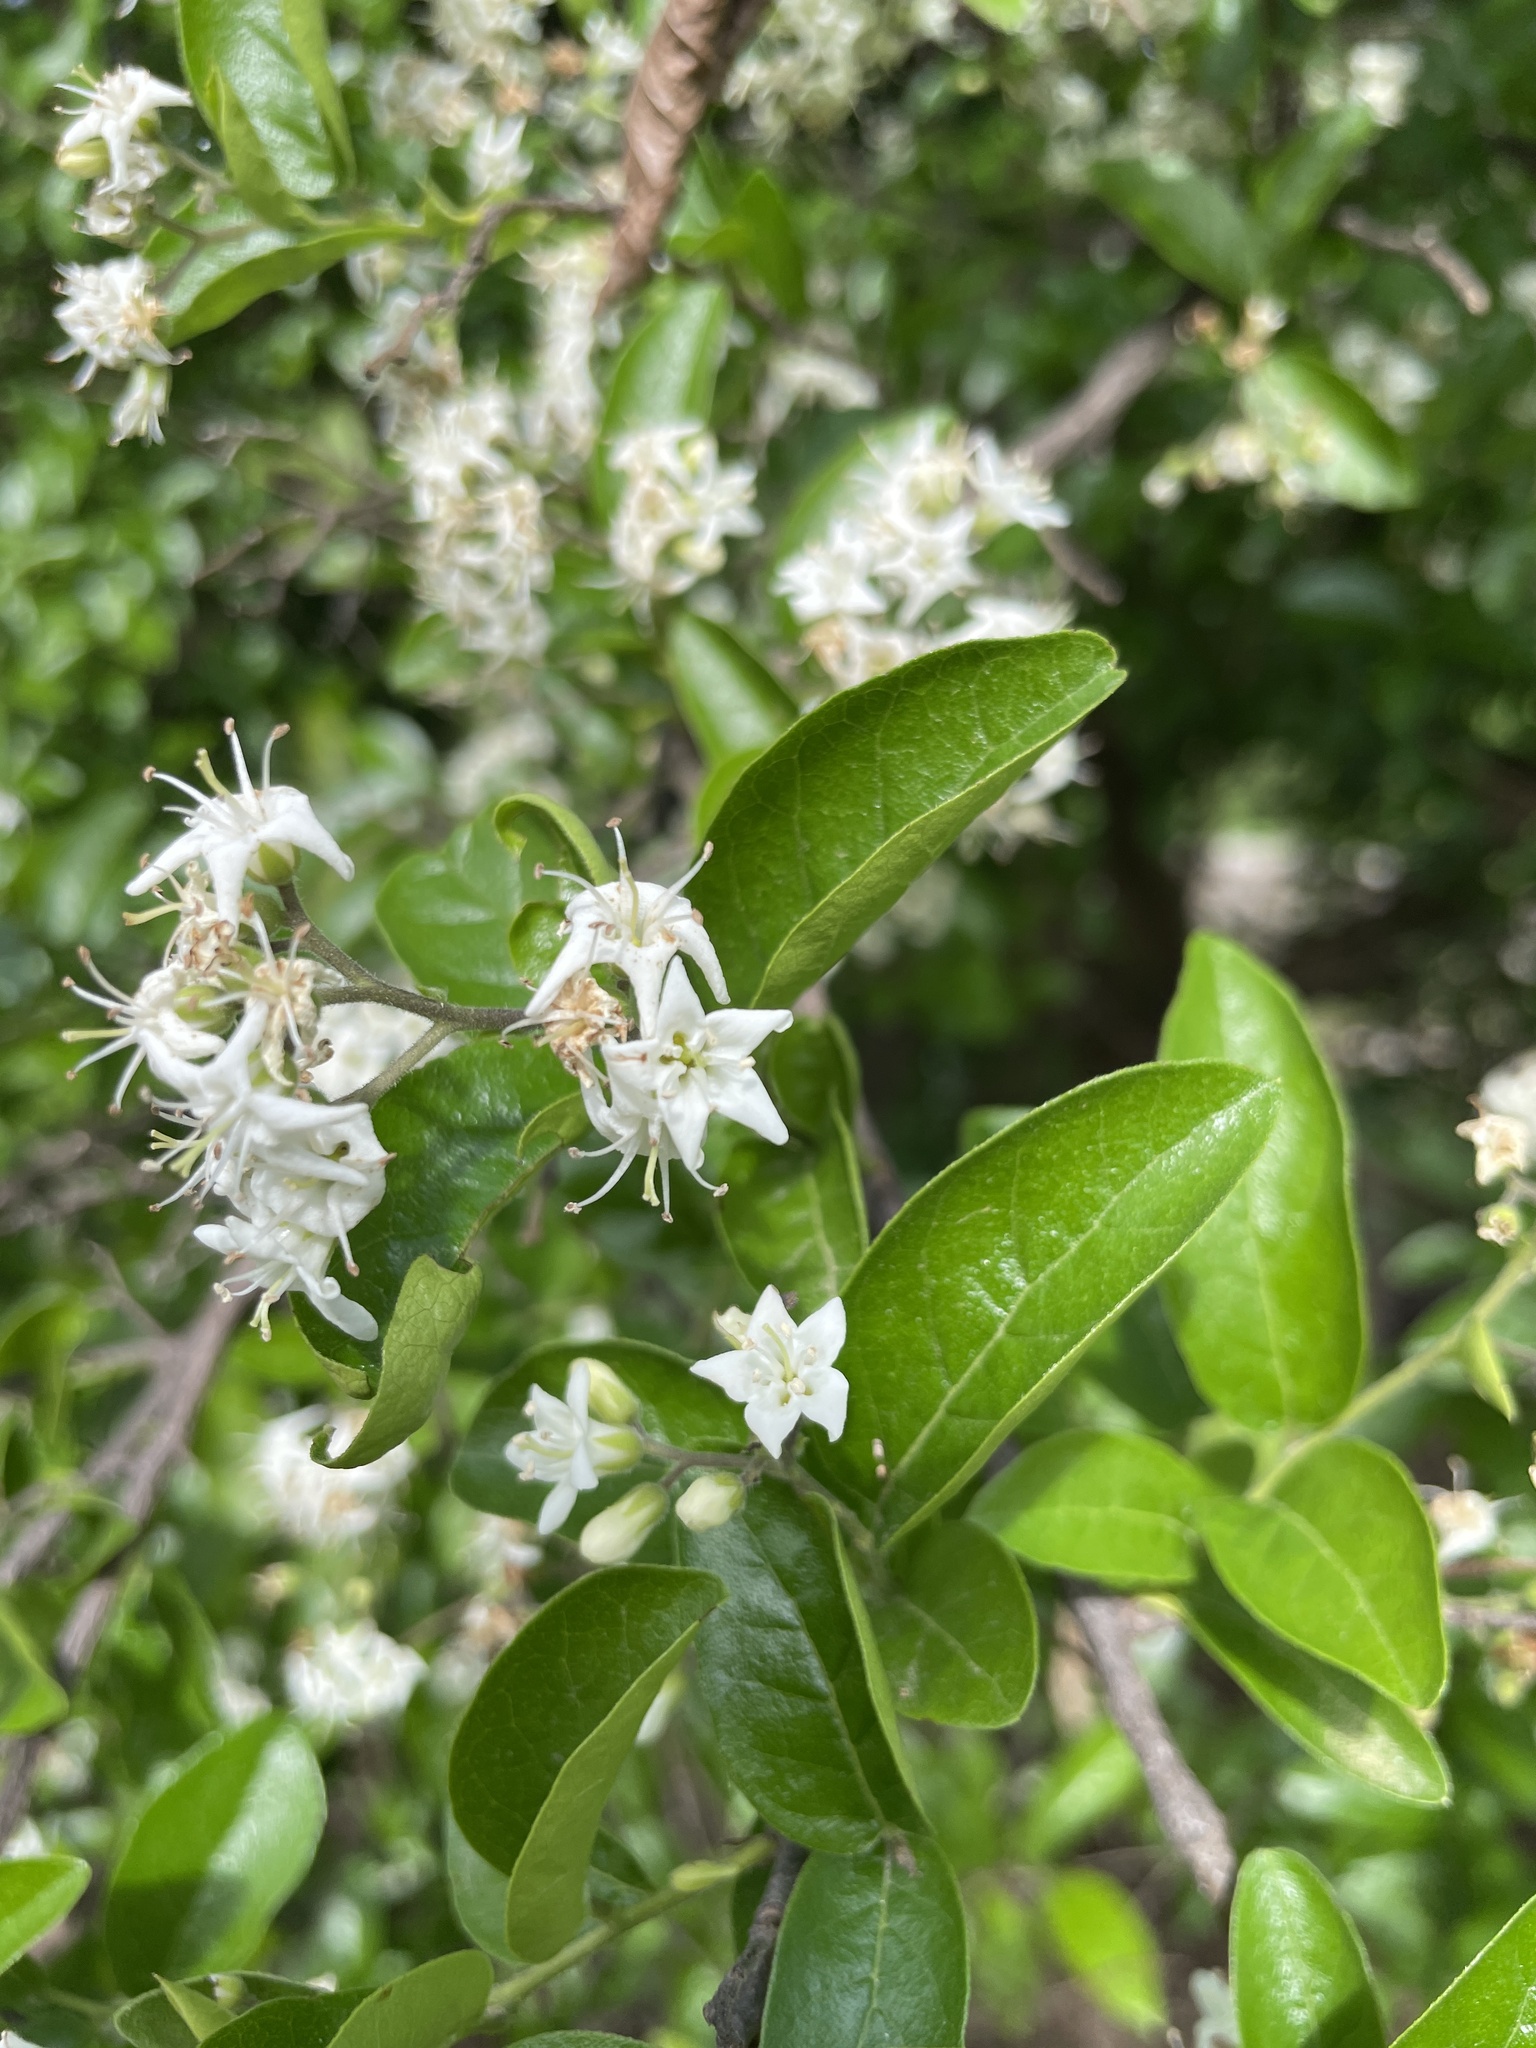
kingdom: Plantae
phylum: Tracheophyta
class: Magnoliopsida
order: Boraginales
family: Ehretiaceae
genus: Ehretia
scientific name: Ehretia anacua
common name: Sugarberry
